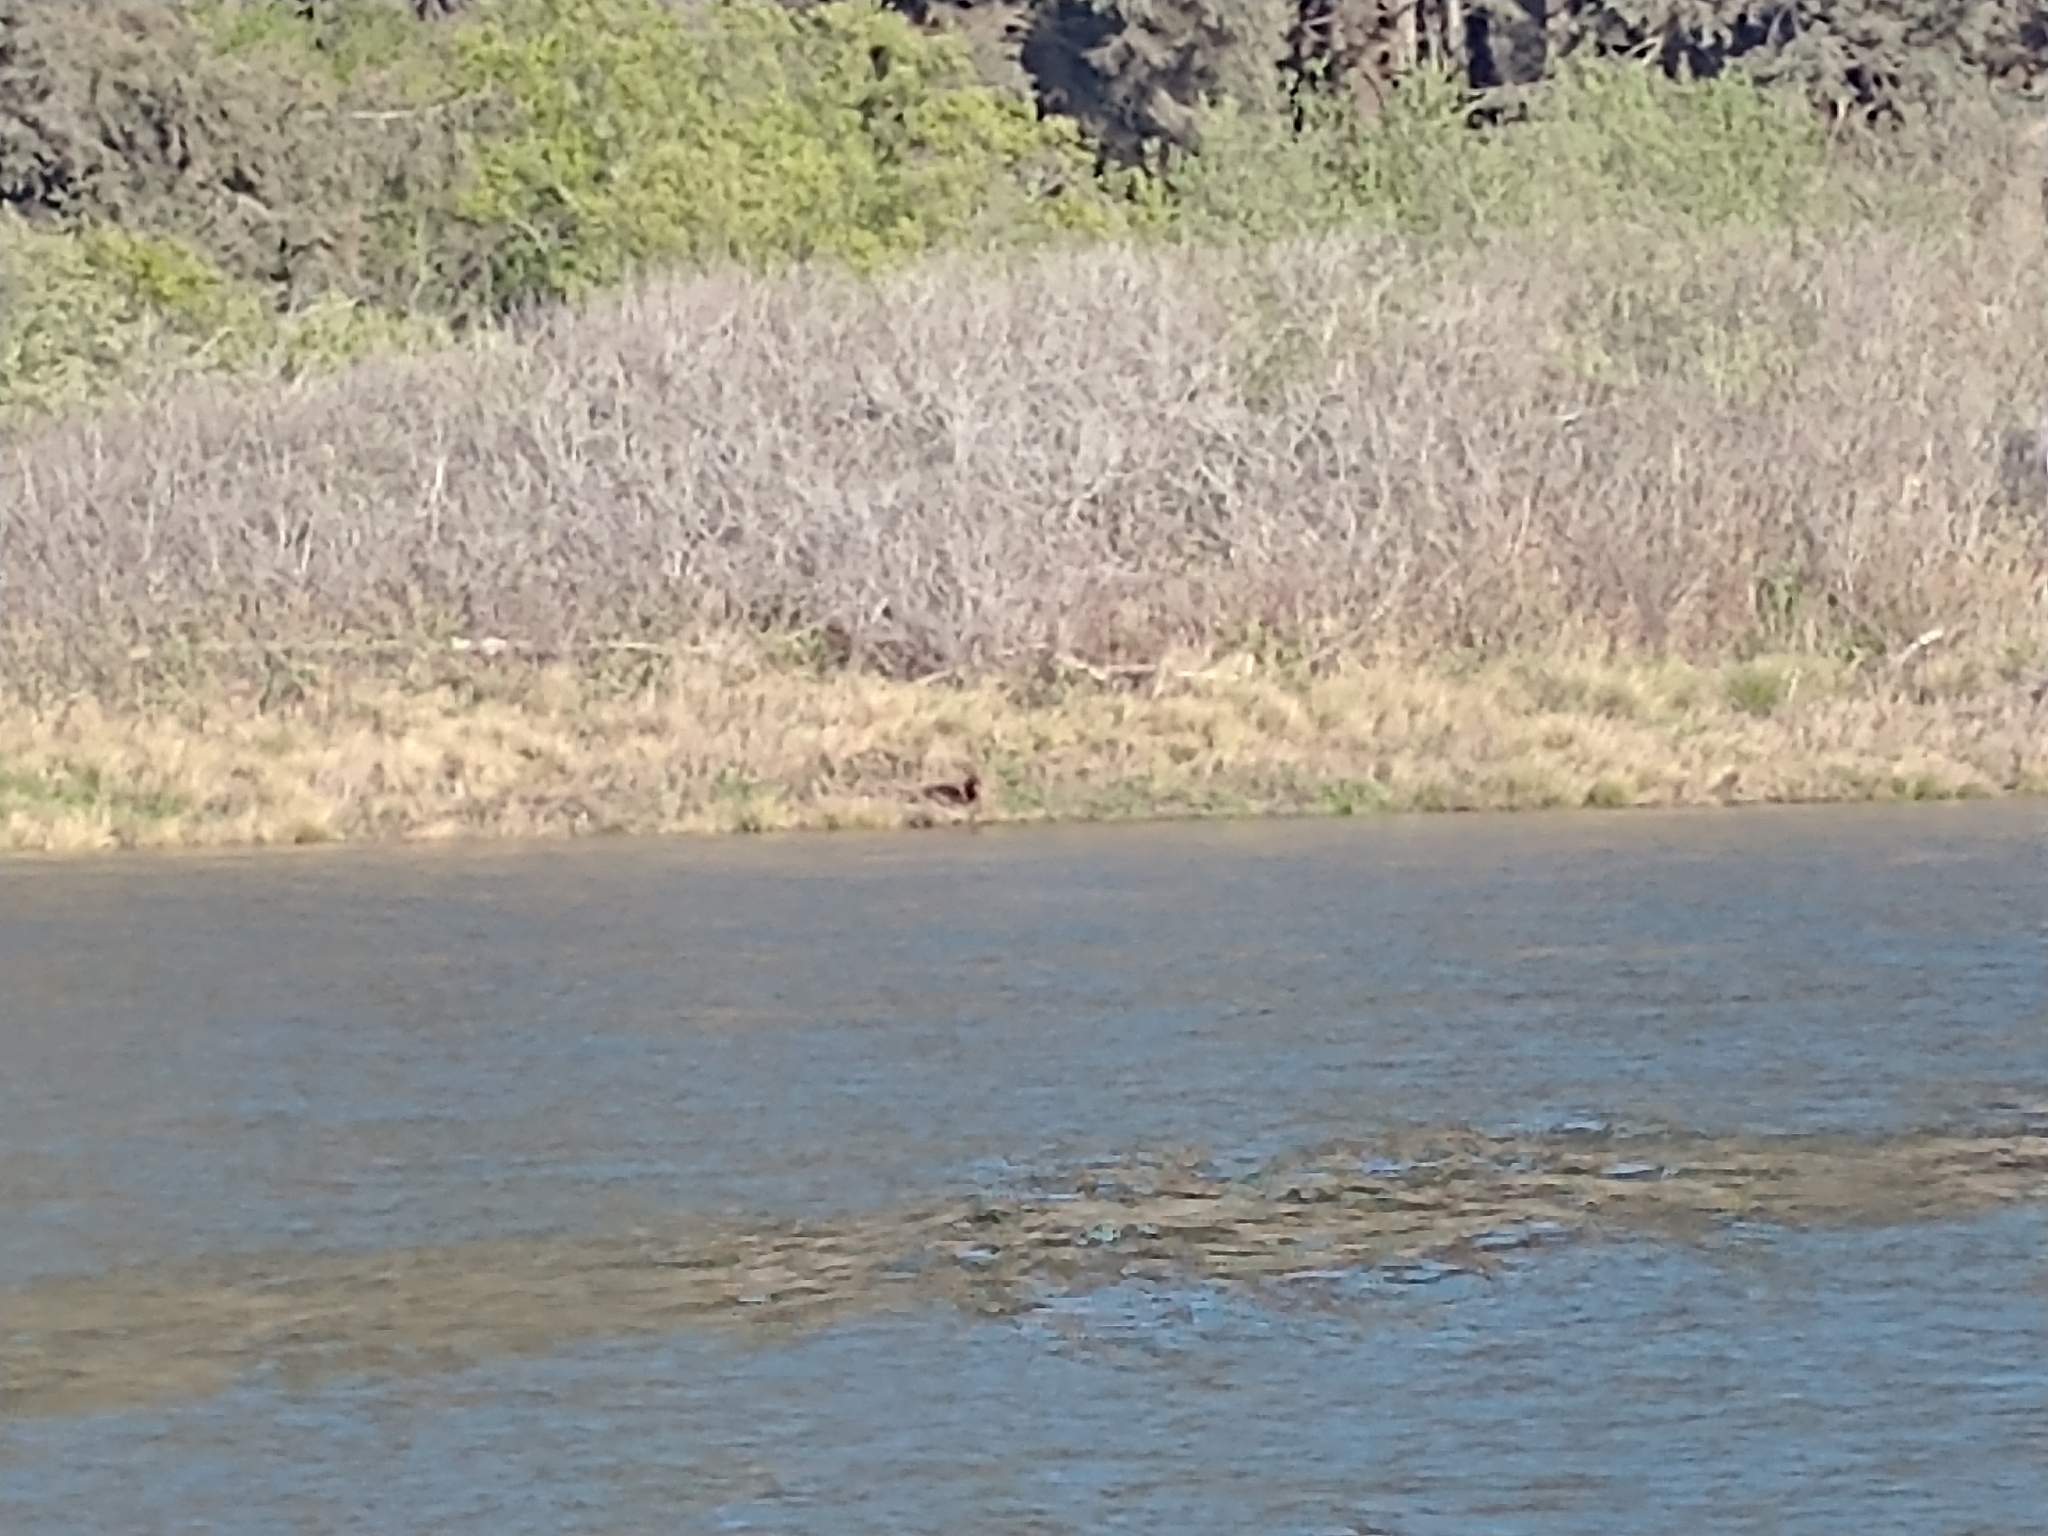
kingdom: Animalia
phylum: Chordata
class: Mammalia
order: Carnivora
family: Mustelidae
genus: Lontra
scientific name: Lontra canadensis
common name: North american river otter
